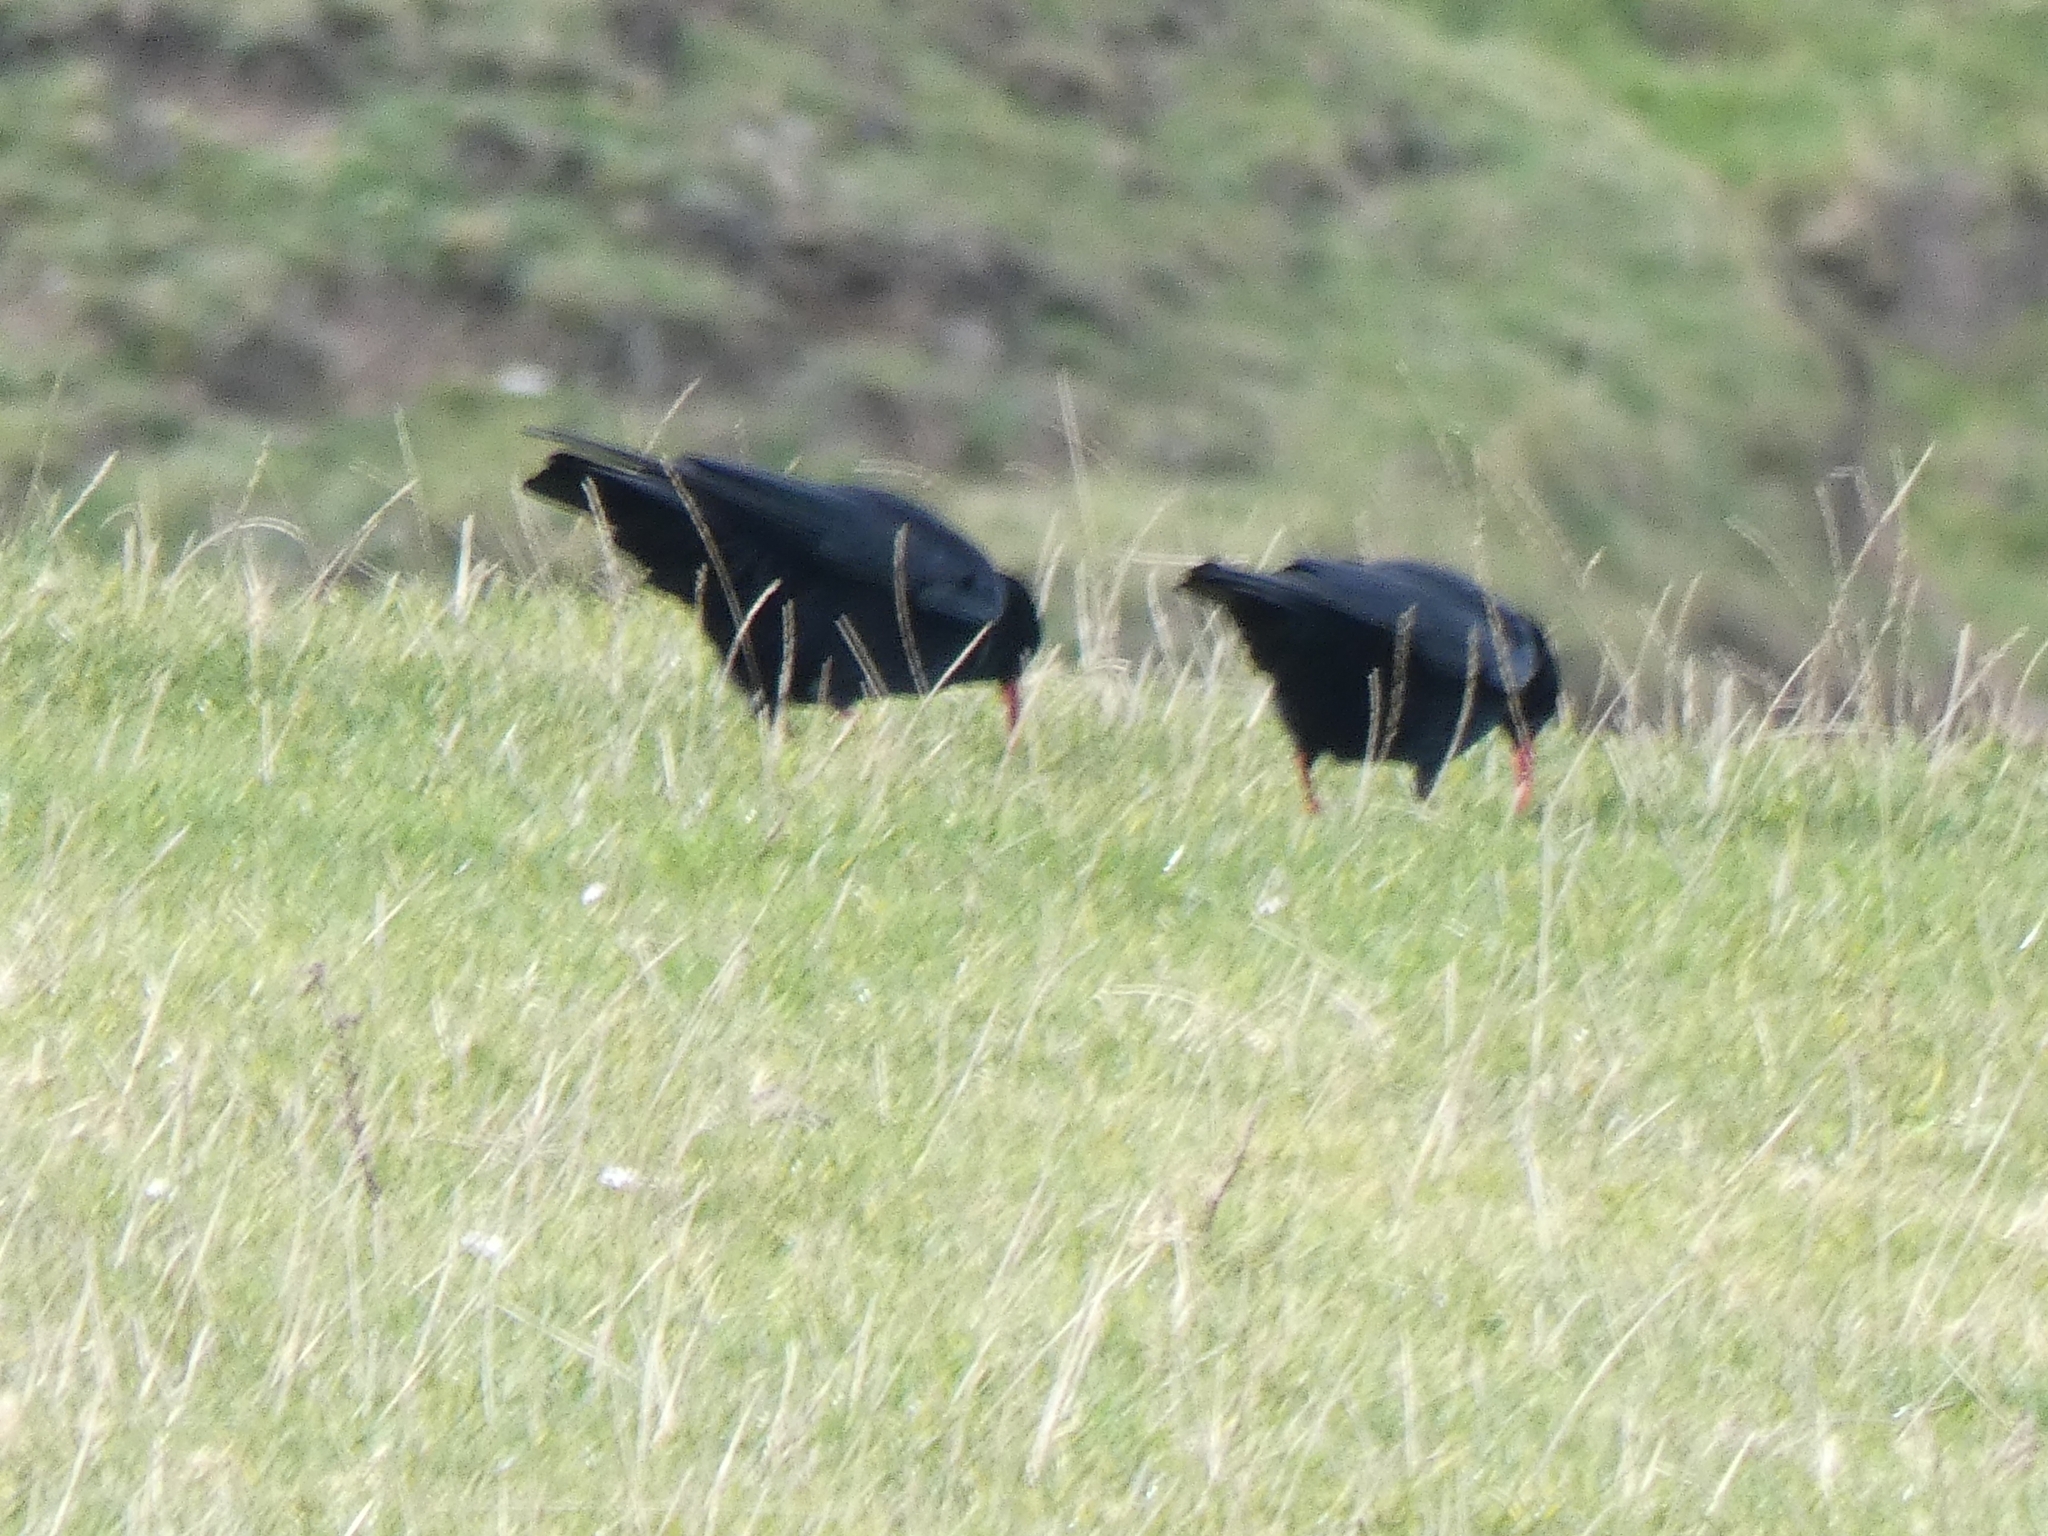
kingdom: Animalia
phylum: Chordata
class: Aves
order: Passeriformes
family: Corvidae
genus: Pyrrhocorax
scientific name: Pyrrhocorax pyrrhocorax
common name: Red-billed chough
